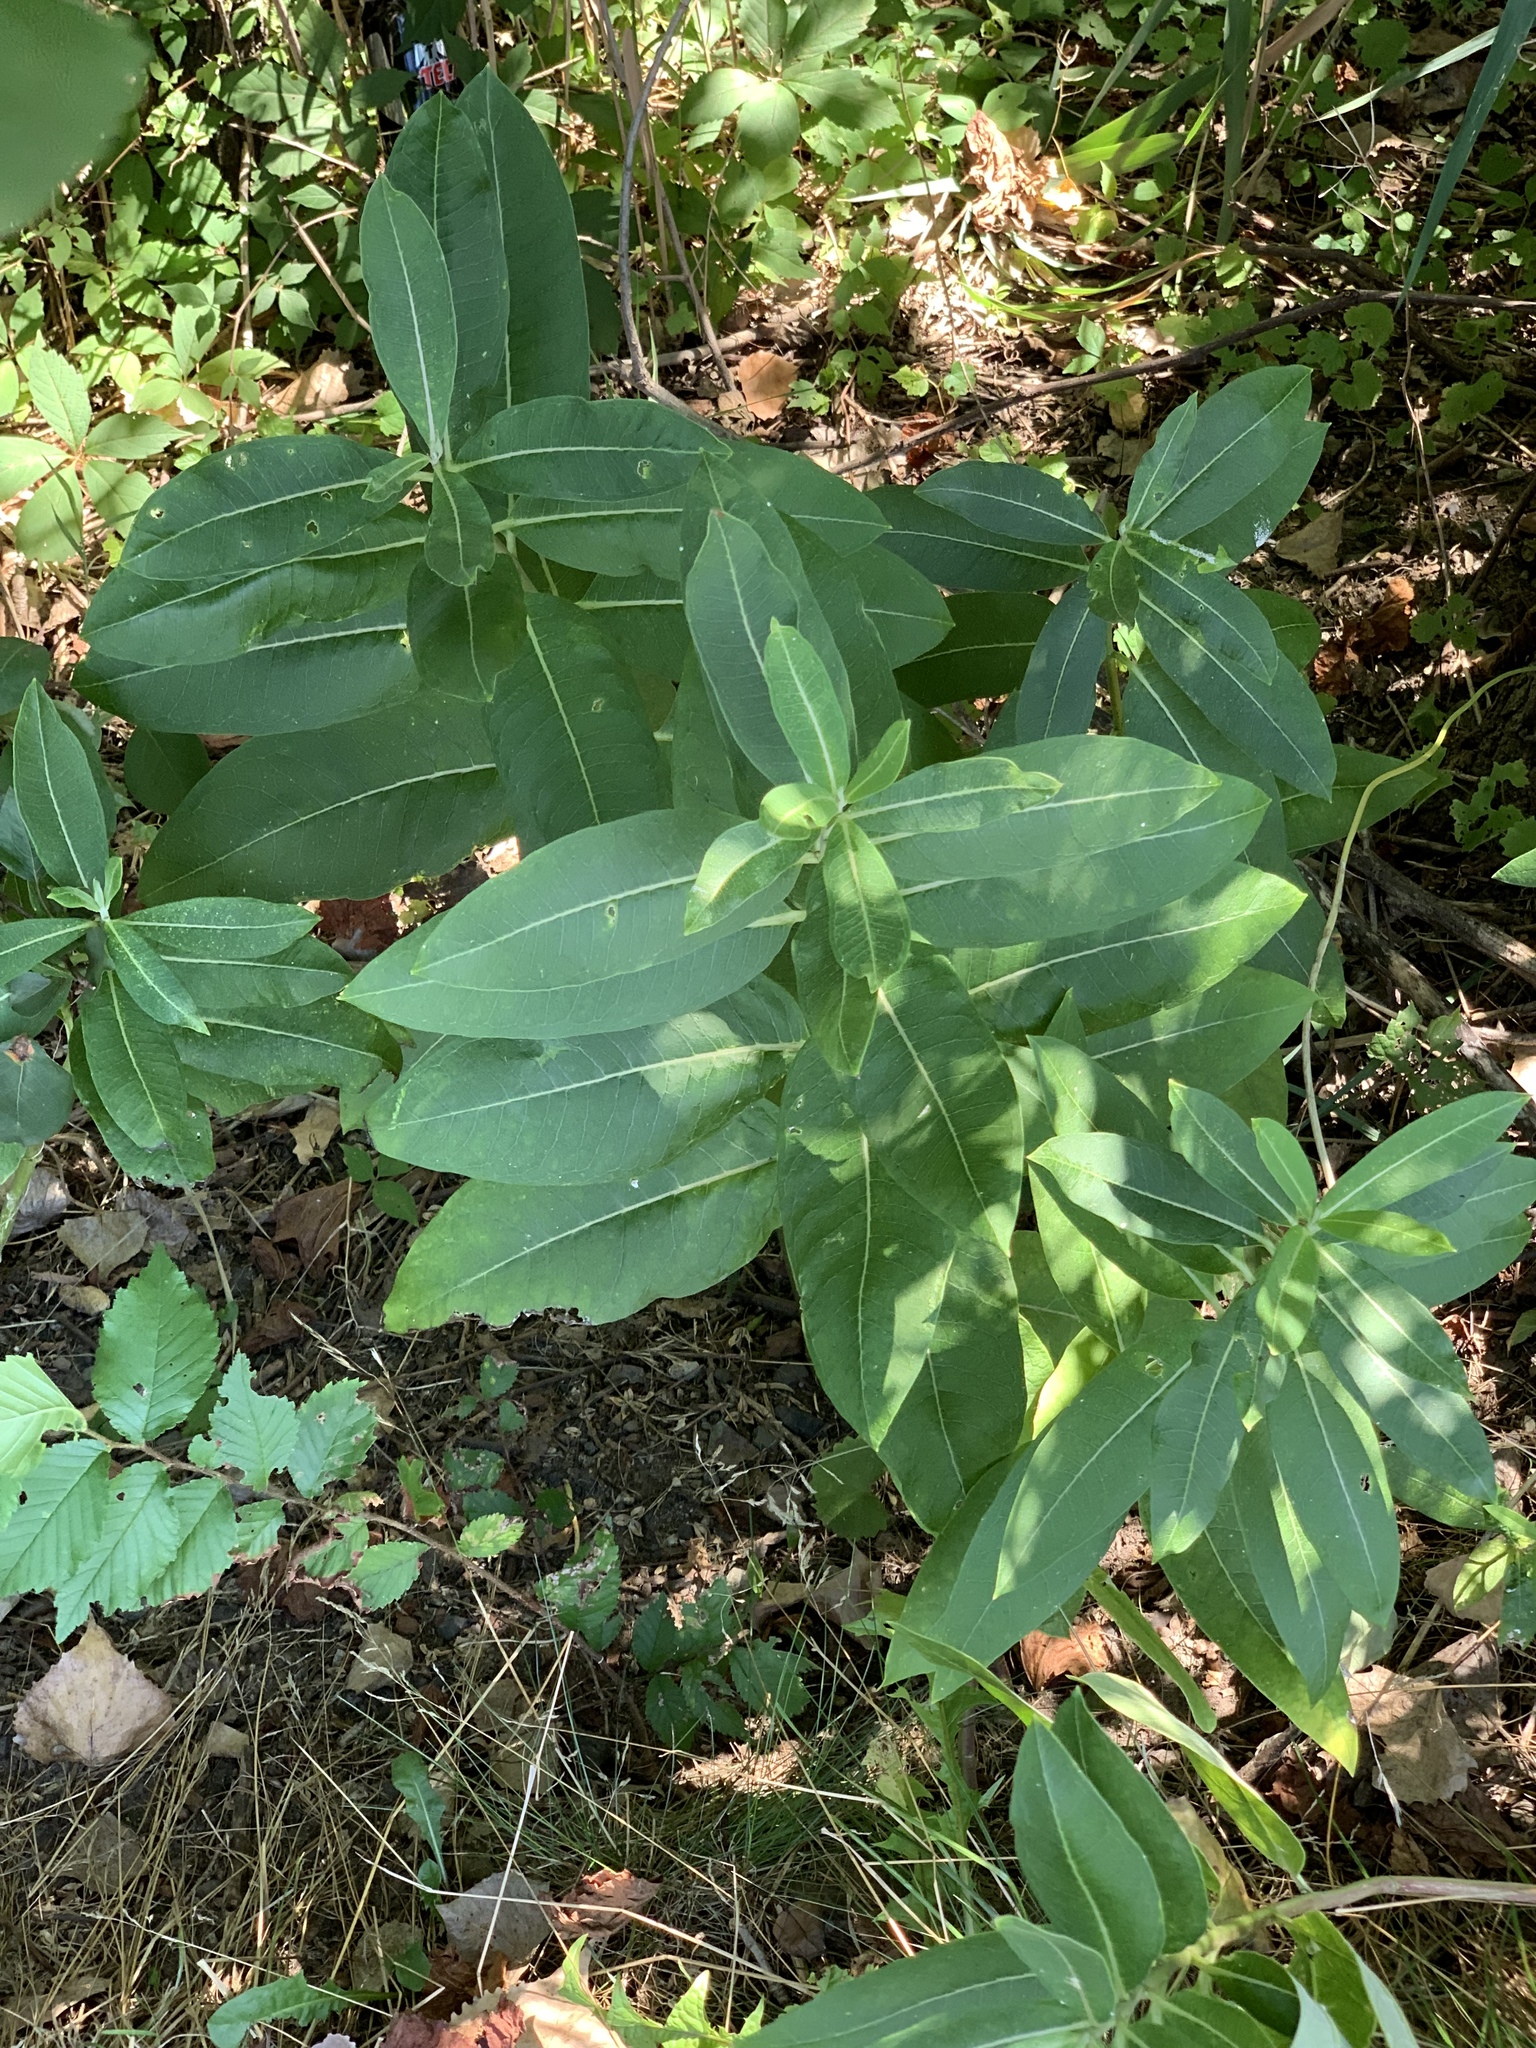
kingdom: Plantae
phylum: Tracheophyta
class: Magnoliopsida
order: Gentianales
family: Apocynaceae
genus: Asclepias
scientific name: Asclepias syriaca
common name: Common milkweed
